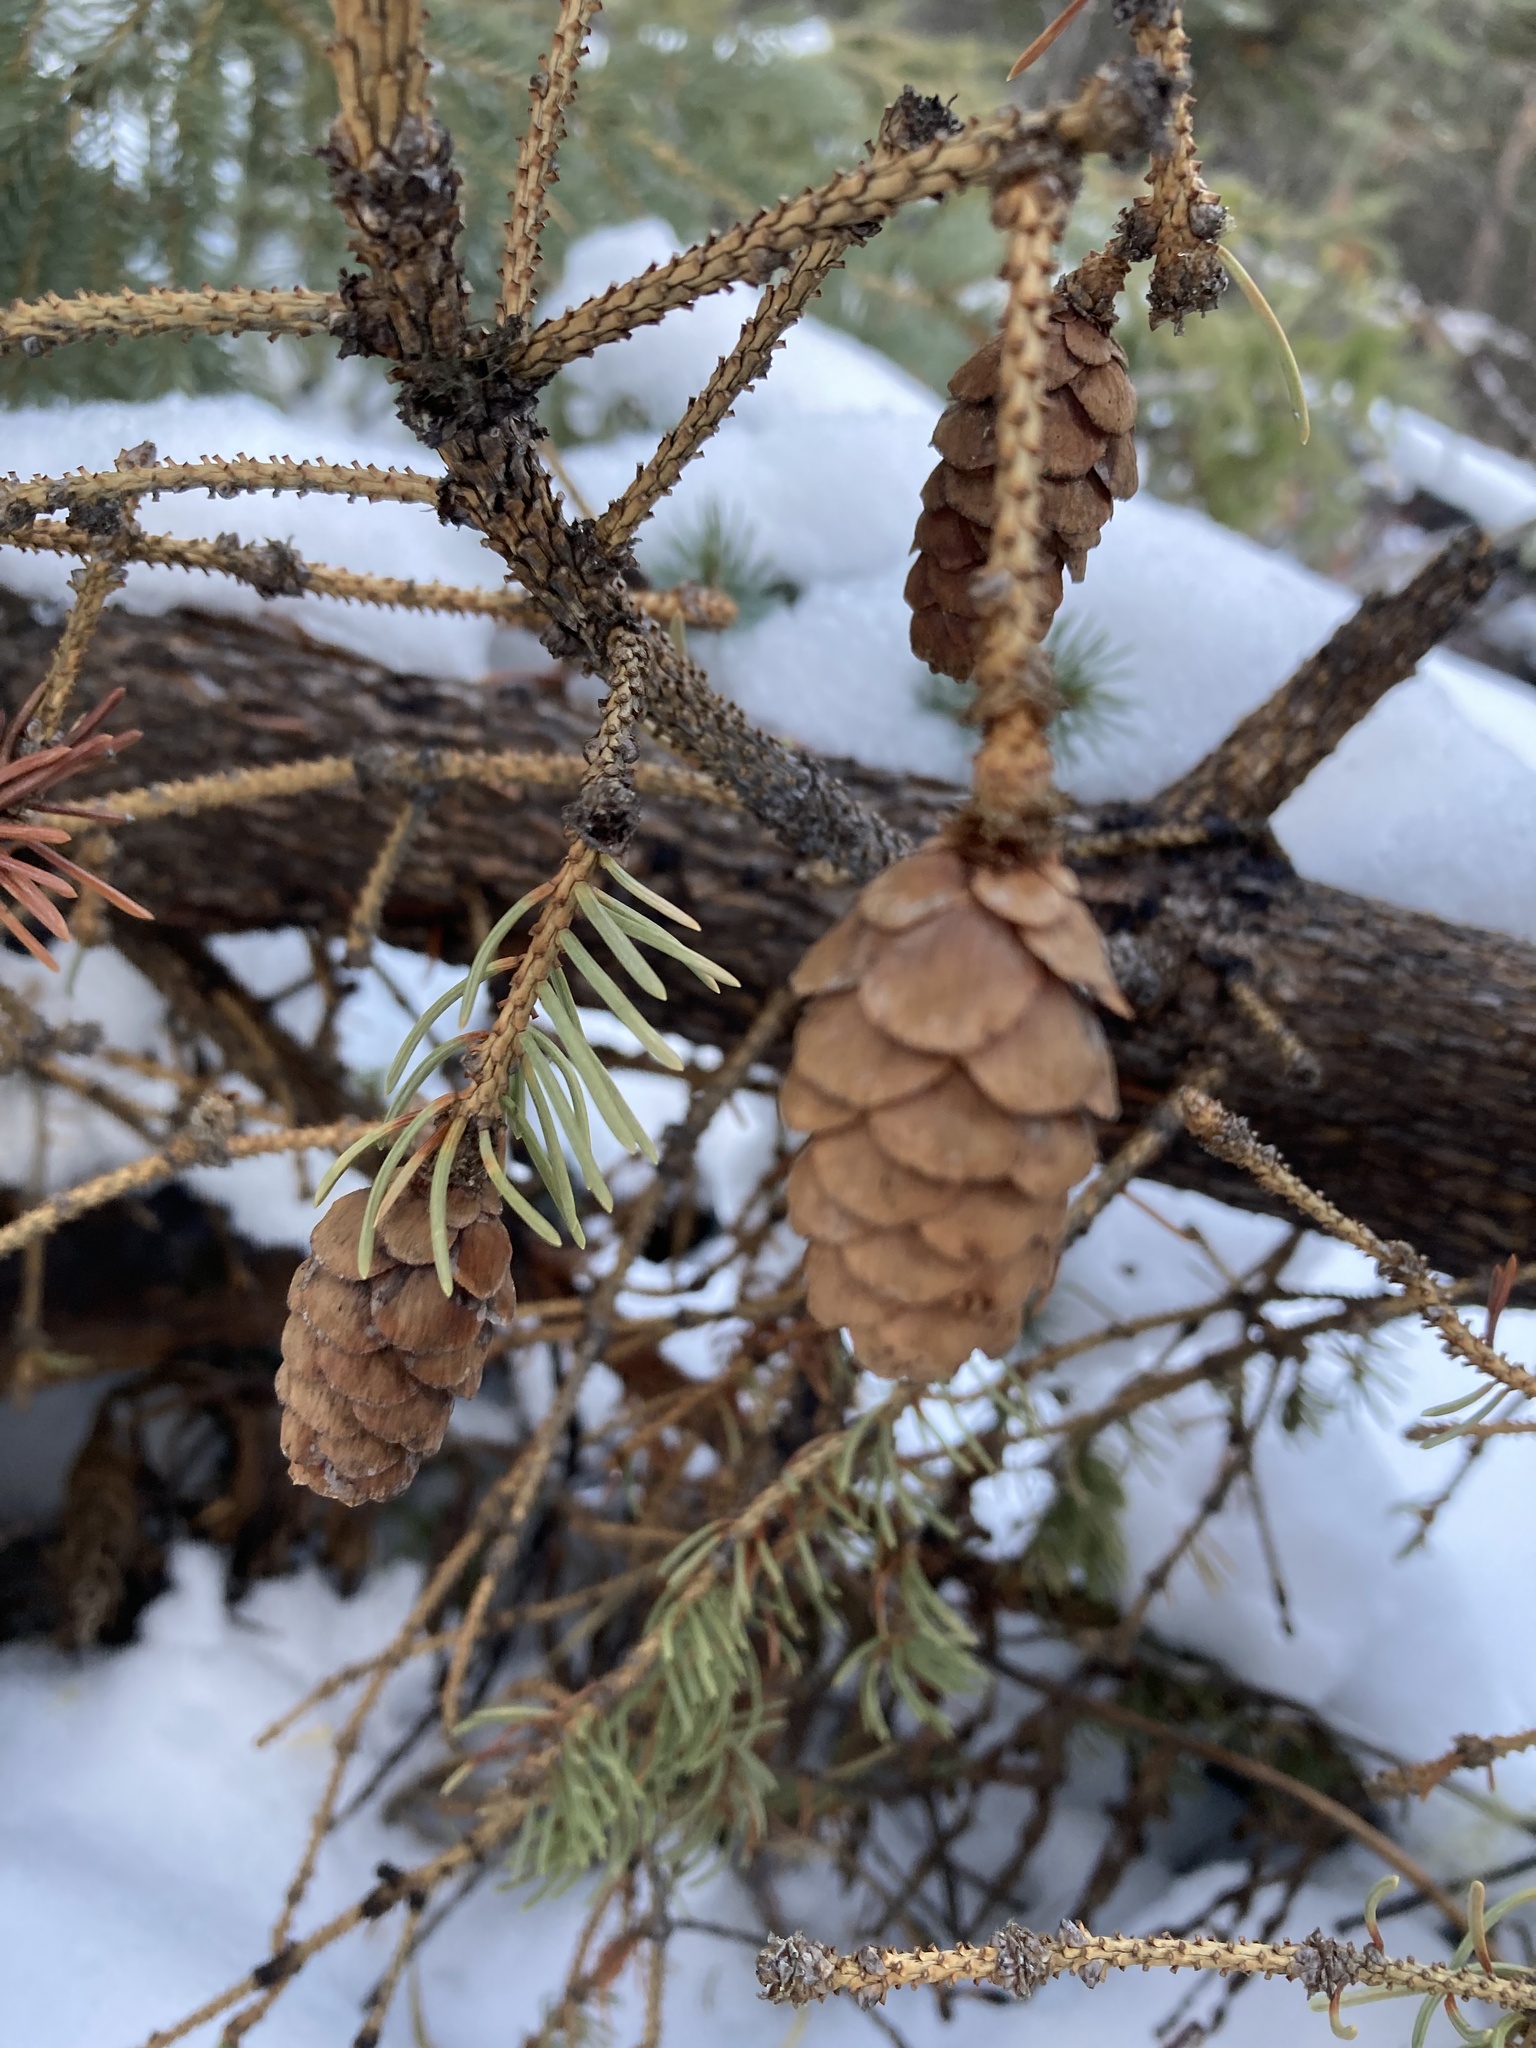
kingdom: Plantae
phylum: Tracheophyta
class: Pinopsida
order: Pinales
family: Pinaceae
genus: Picea
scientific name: Picea glauca
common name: White spruce
